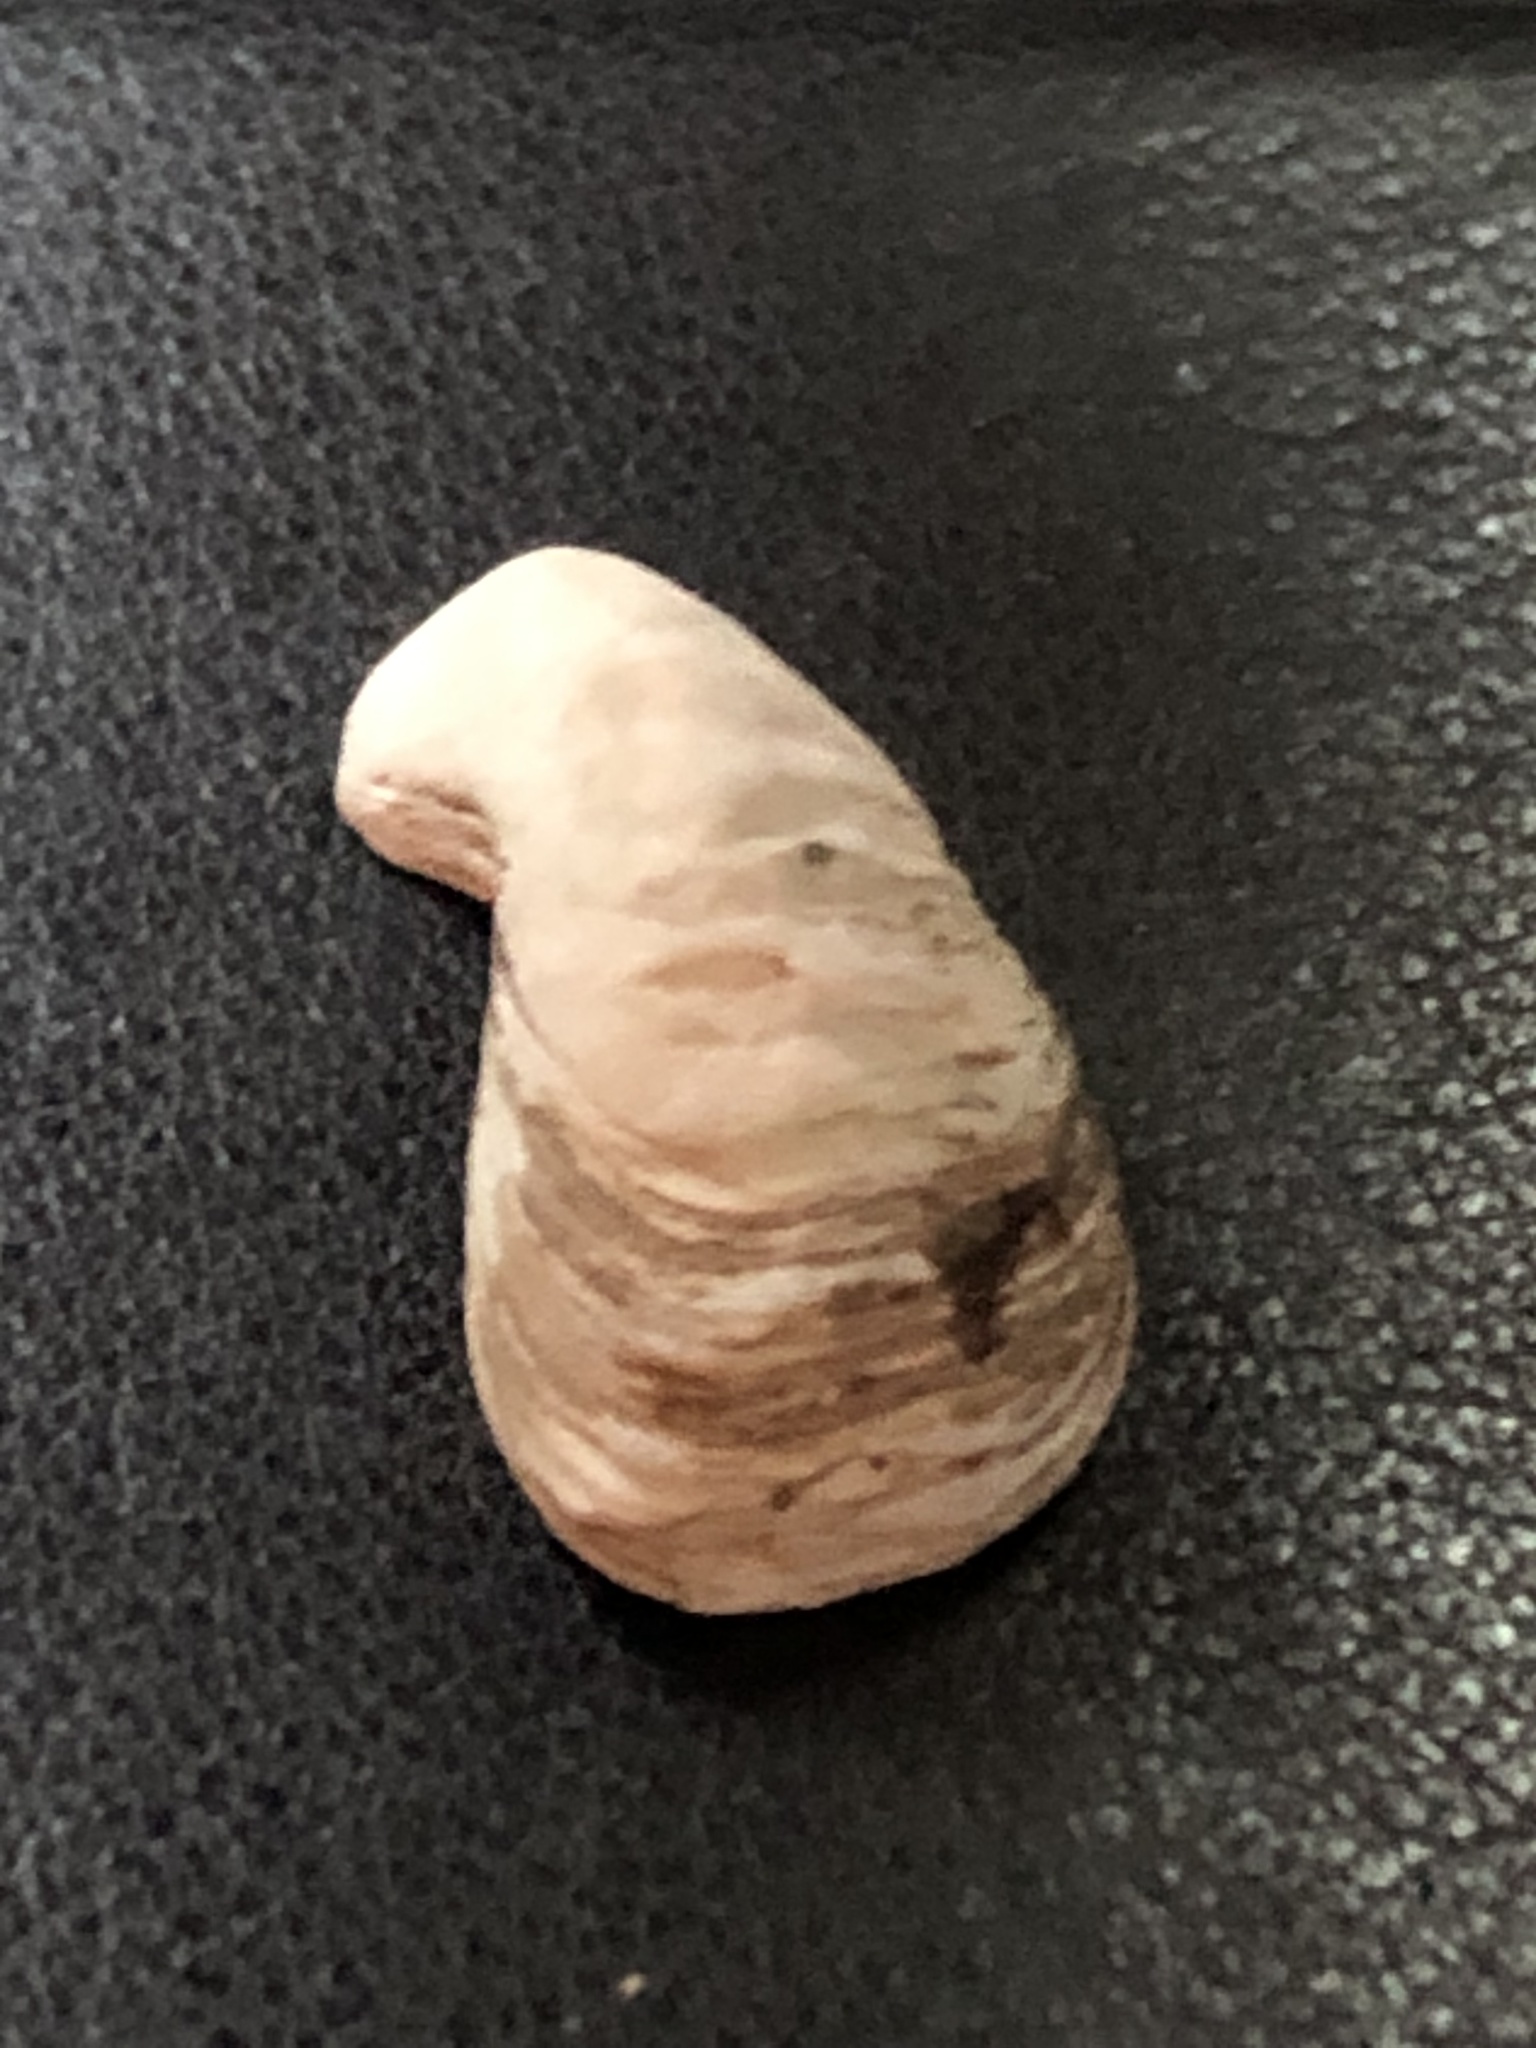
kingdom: Animalia
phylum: Mollusca
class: Bivalvia
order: Myida
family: Dreissenidae
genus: Dreissena
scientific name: Dreissena bugensis
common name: Quagga mussel
